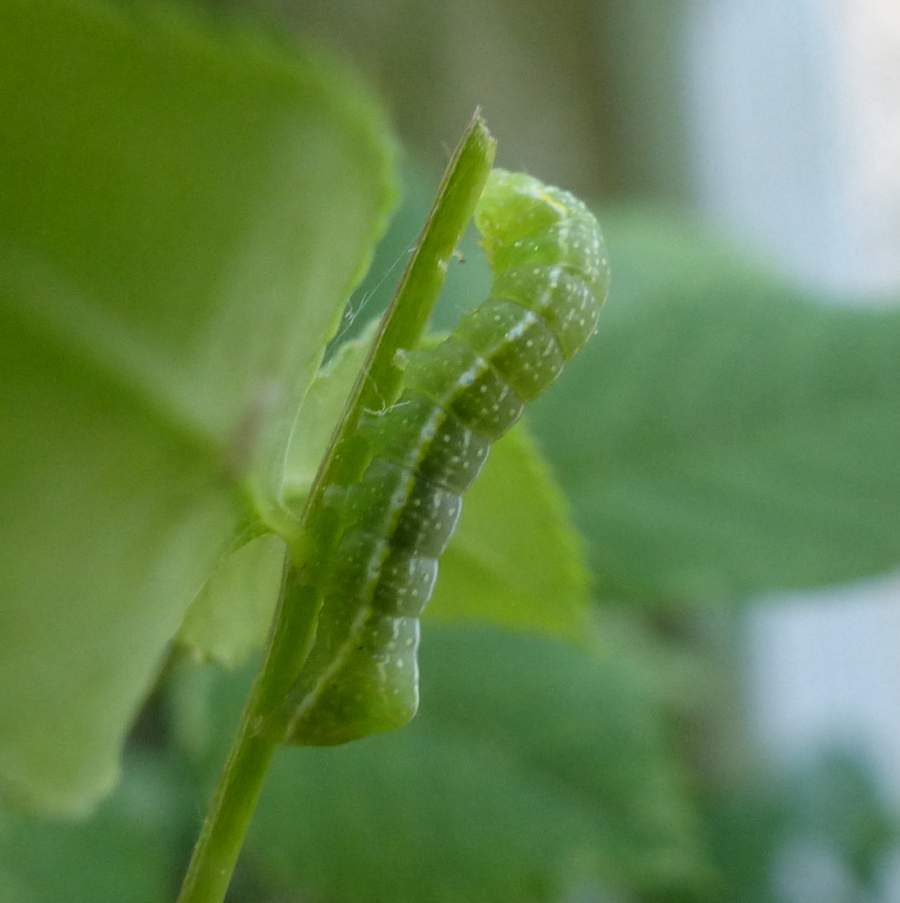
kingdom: Animalia
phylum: Arthropoda
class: Insecta
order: Lepidoptera
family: Noctuidae
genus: Amphipyra
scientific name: Amphipyra pyramidoides
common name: American copper underwing
